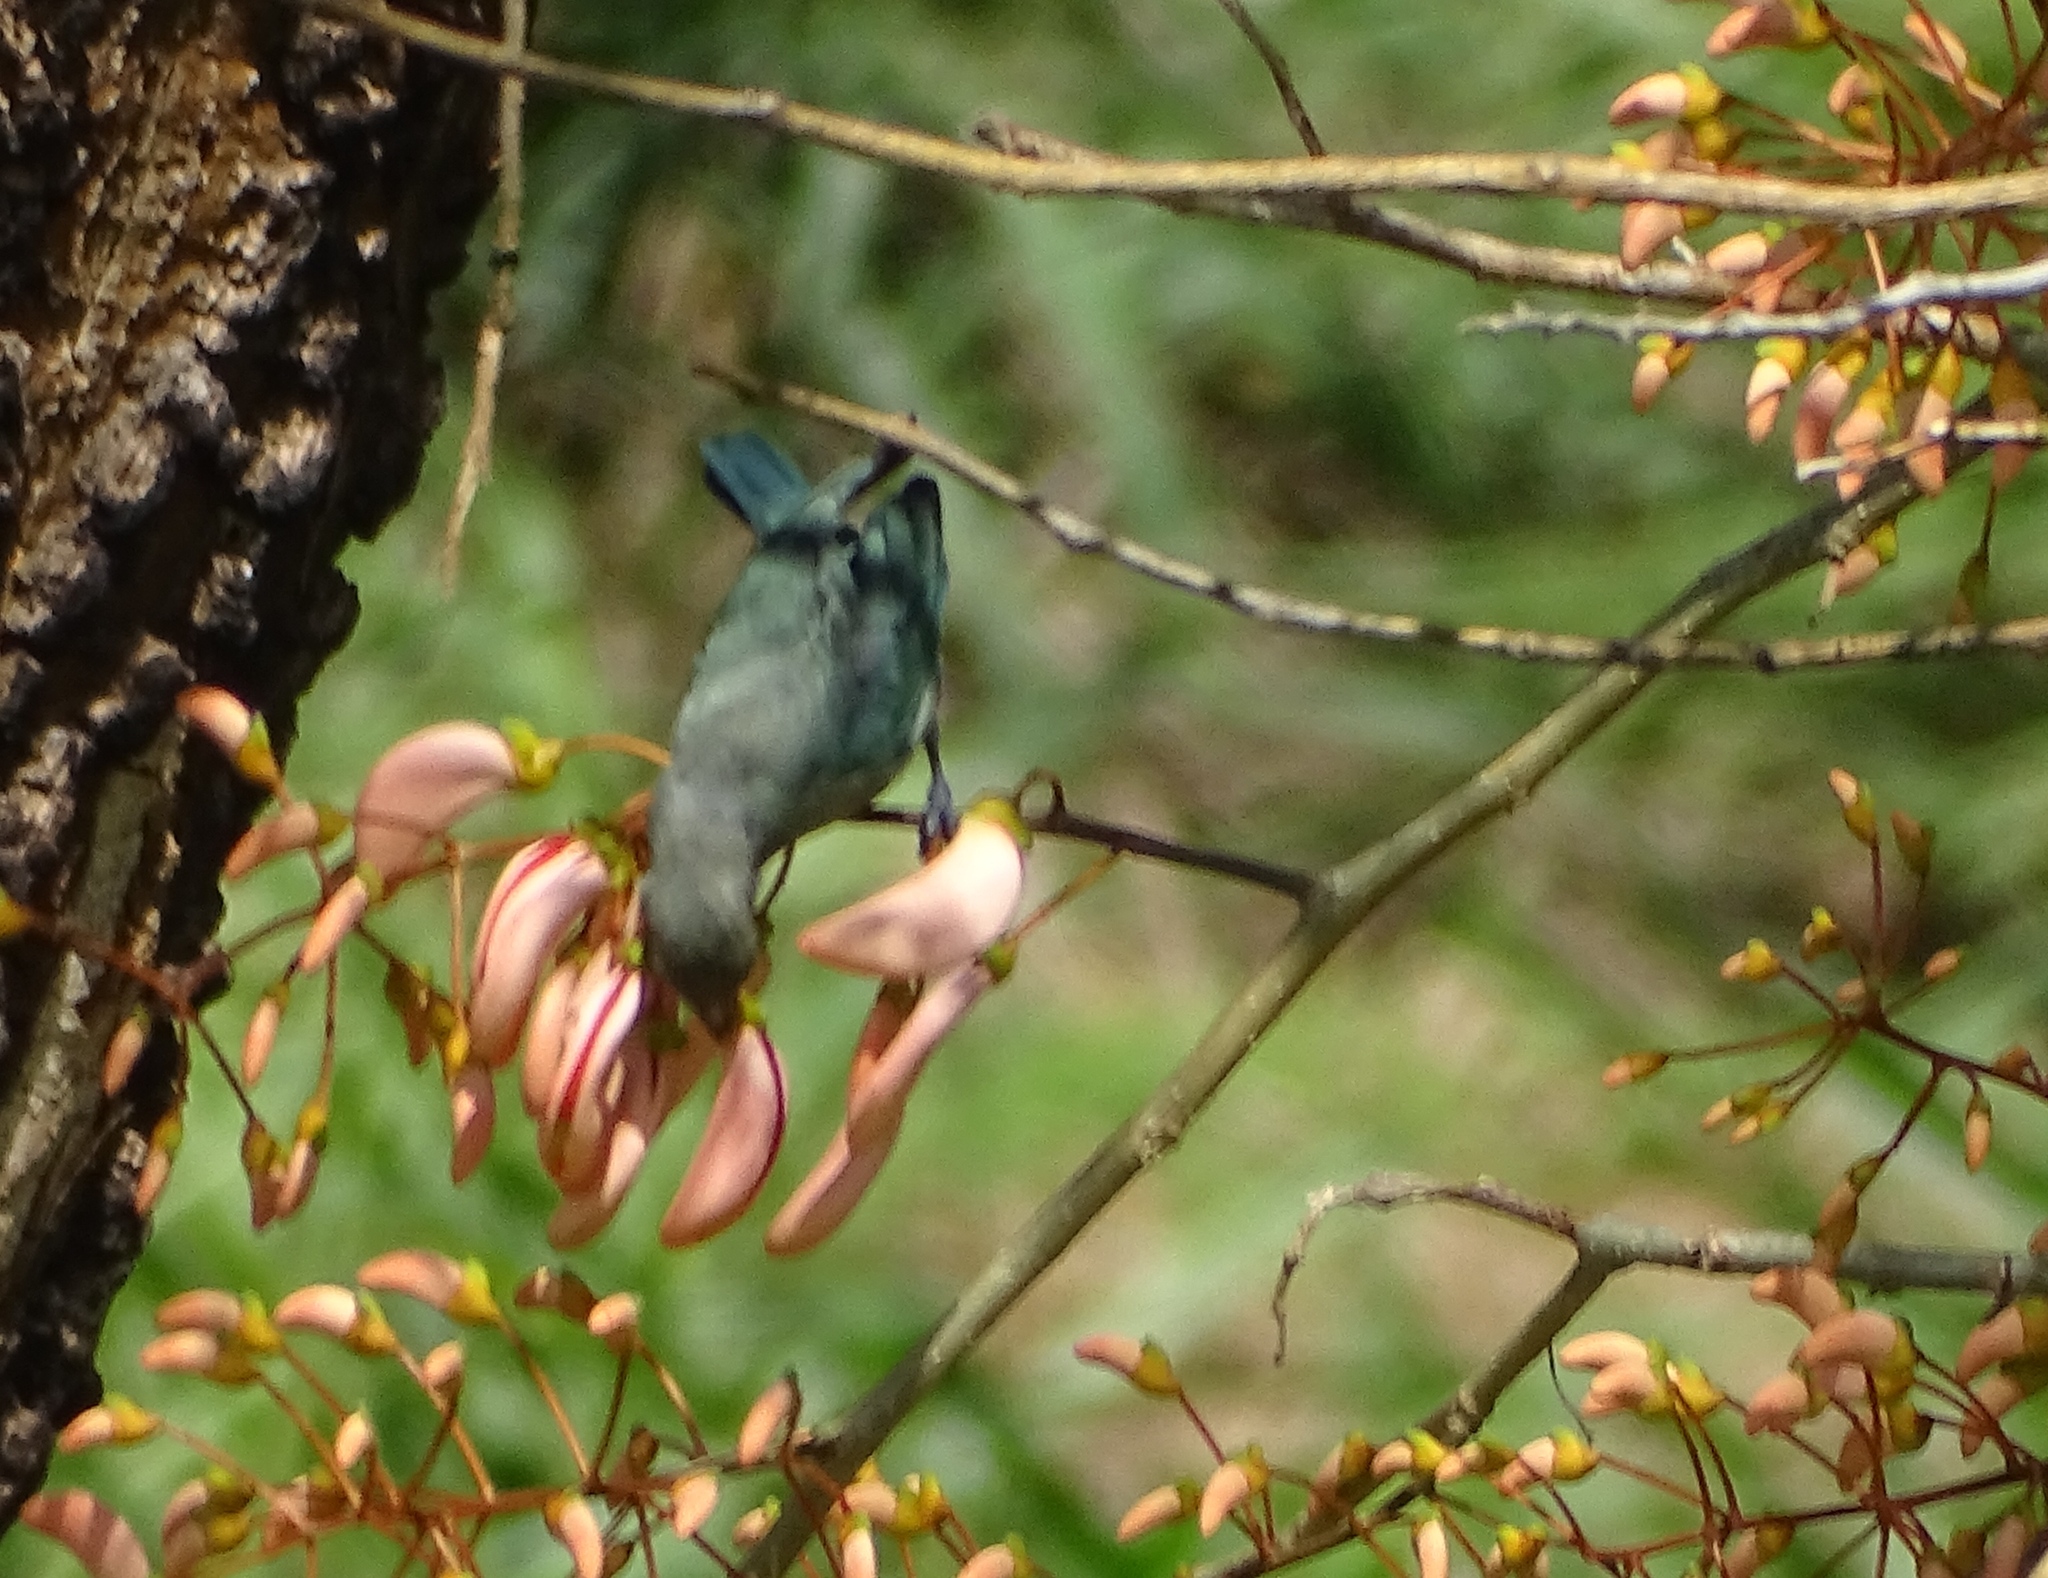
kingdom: Animalia
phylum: Chordata
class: Aves
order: Passeriformes
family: Thraupidae
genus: Thraupis
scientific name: Thraupis sayaca
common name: Sayaca tanager
